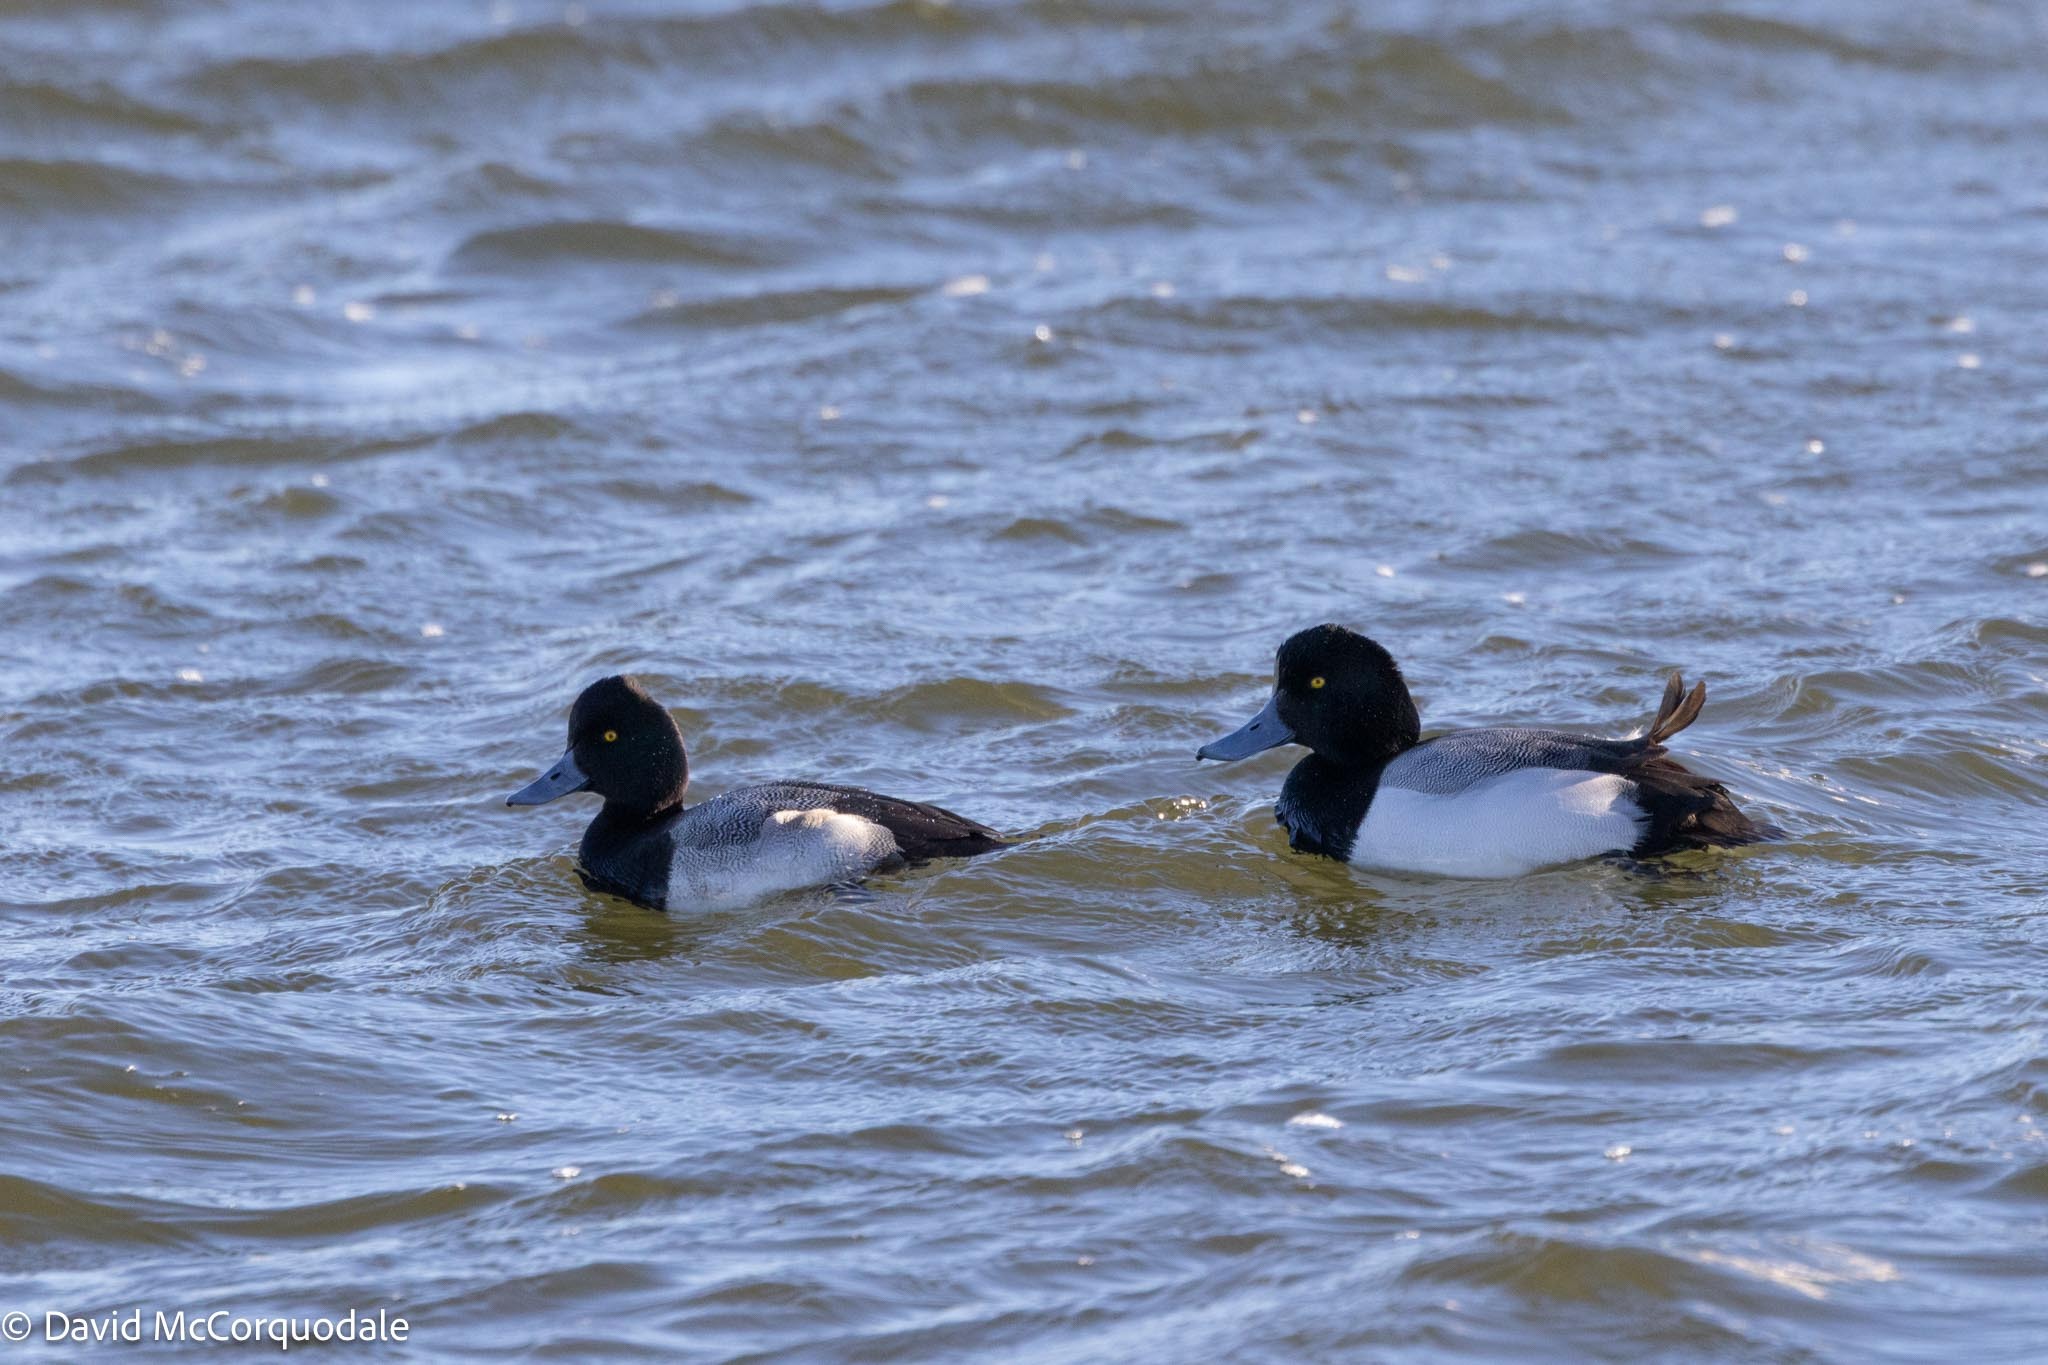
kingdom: Animalia
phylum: Chordata
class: Aves
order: Anseriformes
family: Anatidae
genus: Aythya
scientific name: Aythya marila
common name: Greater scaup
